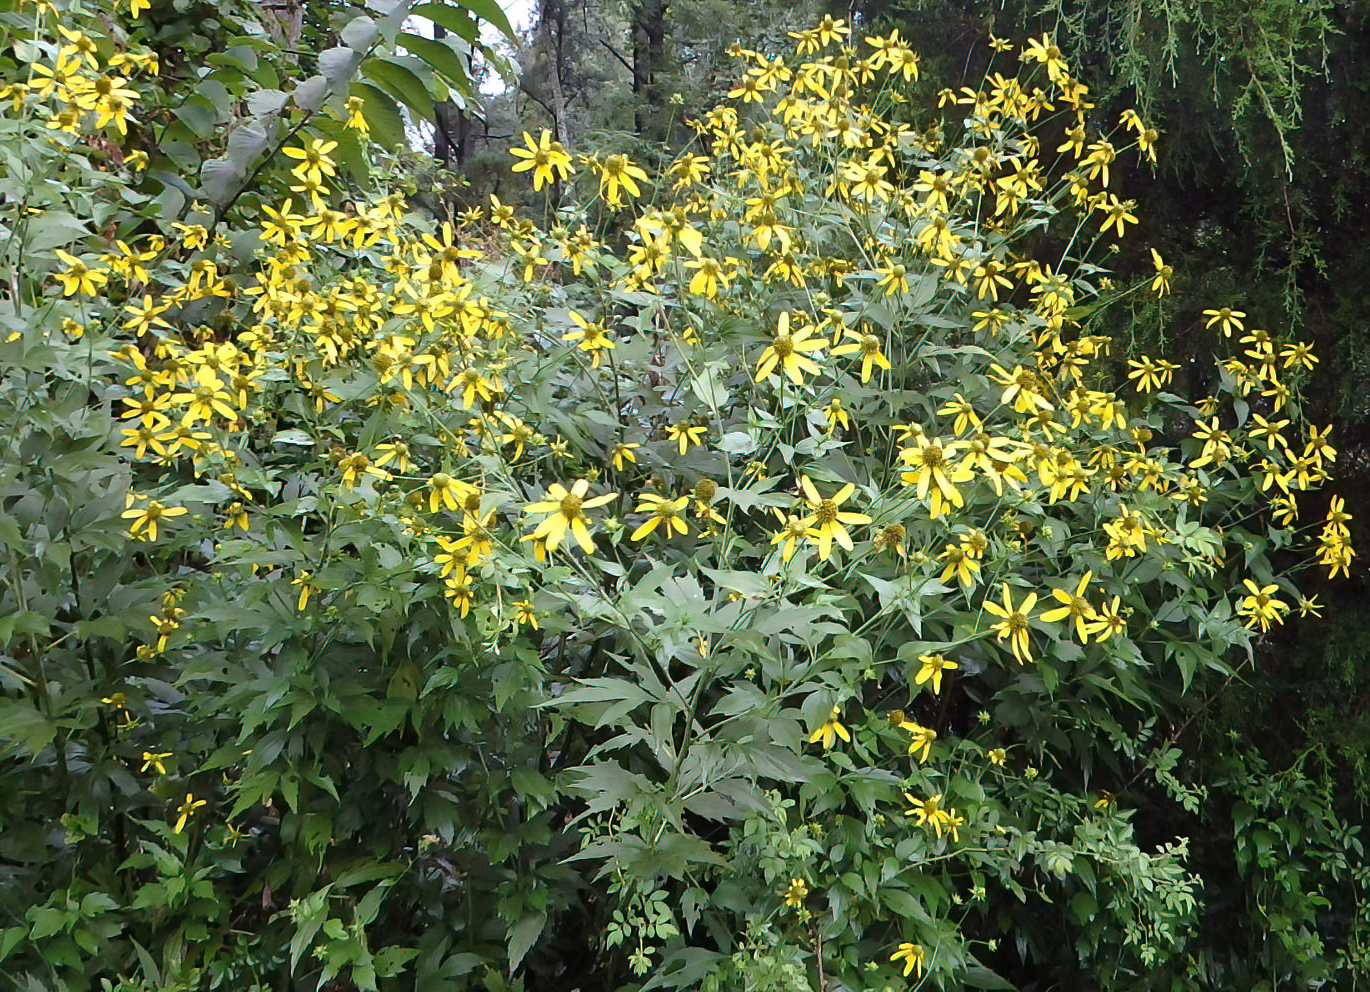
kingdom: Plantae
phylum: Tracheophyta
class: Magnoliopsida
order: Asterales
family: Asteraceae
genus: Rudbeckia
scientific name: Rudbeckia laciniata
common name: Coneflower
